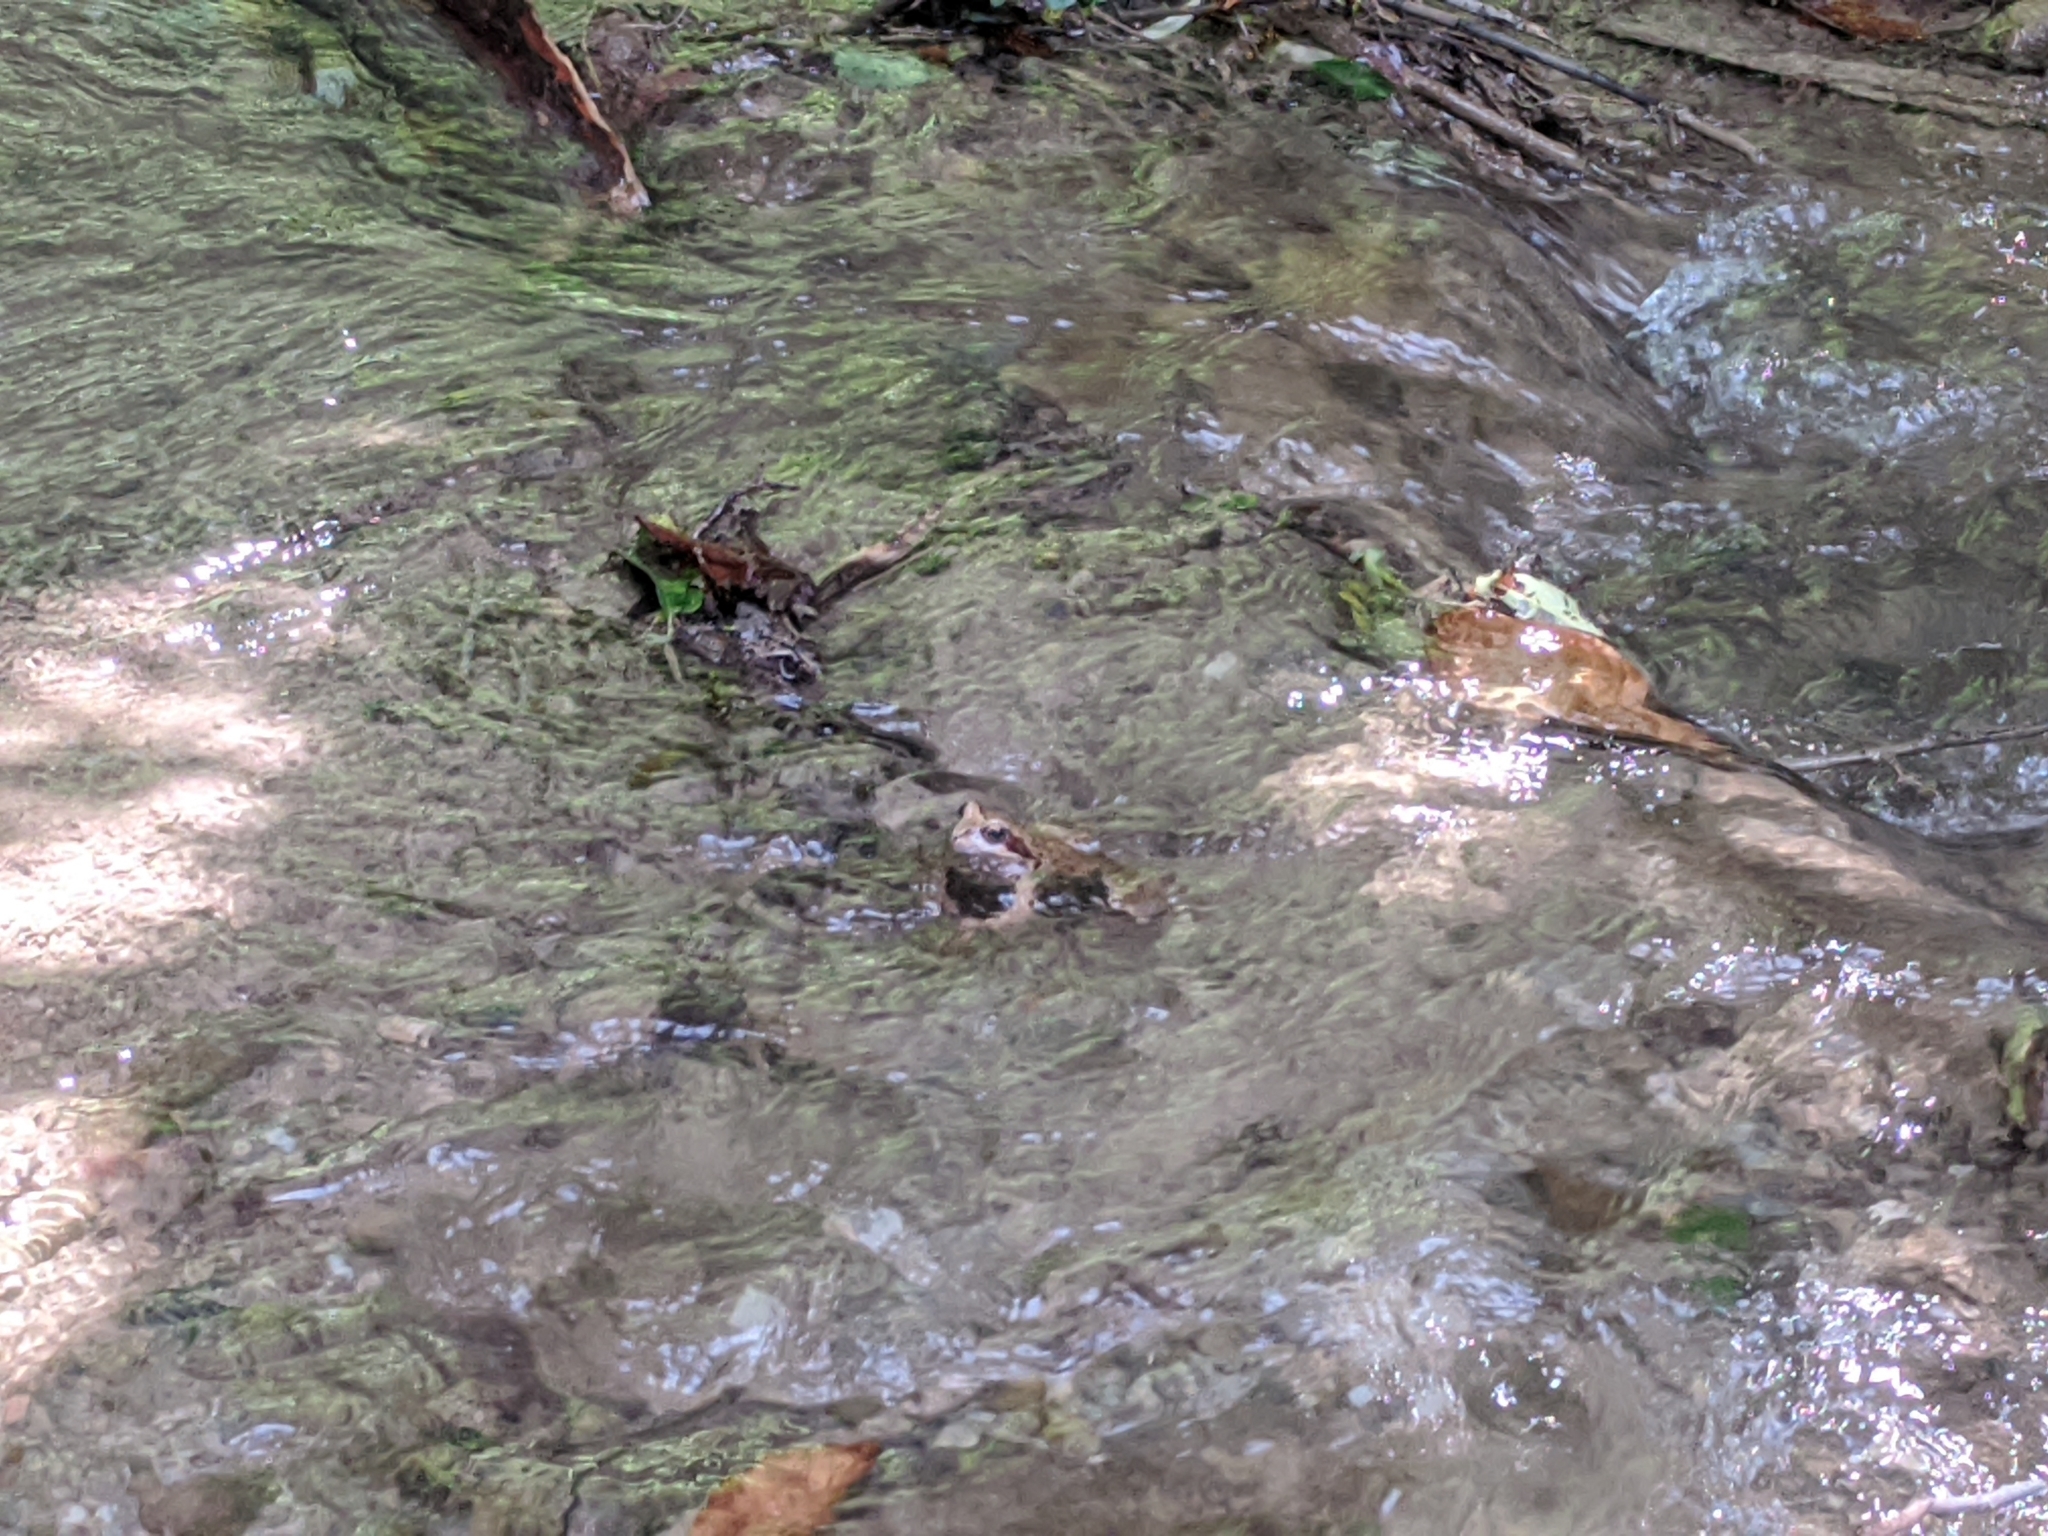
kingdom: Animalia
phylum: Chordata
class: Amphibia
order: Anura
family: Ranidae
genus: Rana
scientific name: Rana temporaria
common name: Common frog
